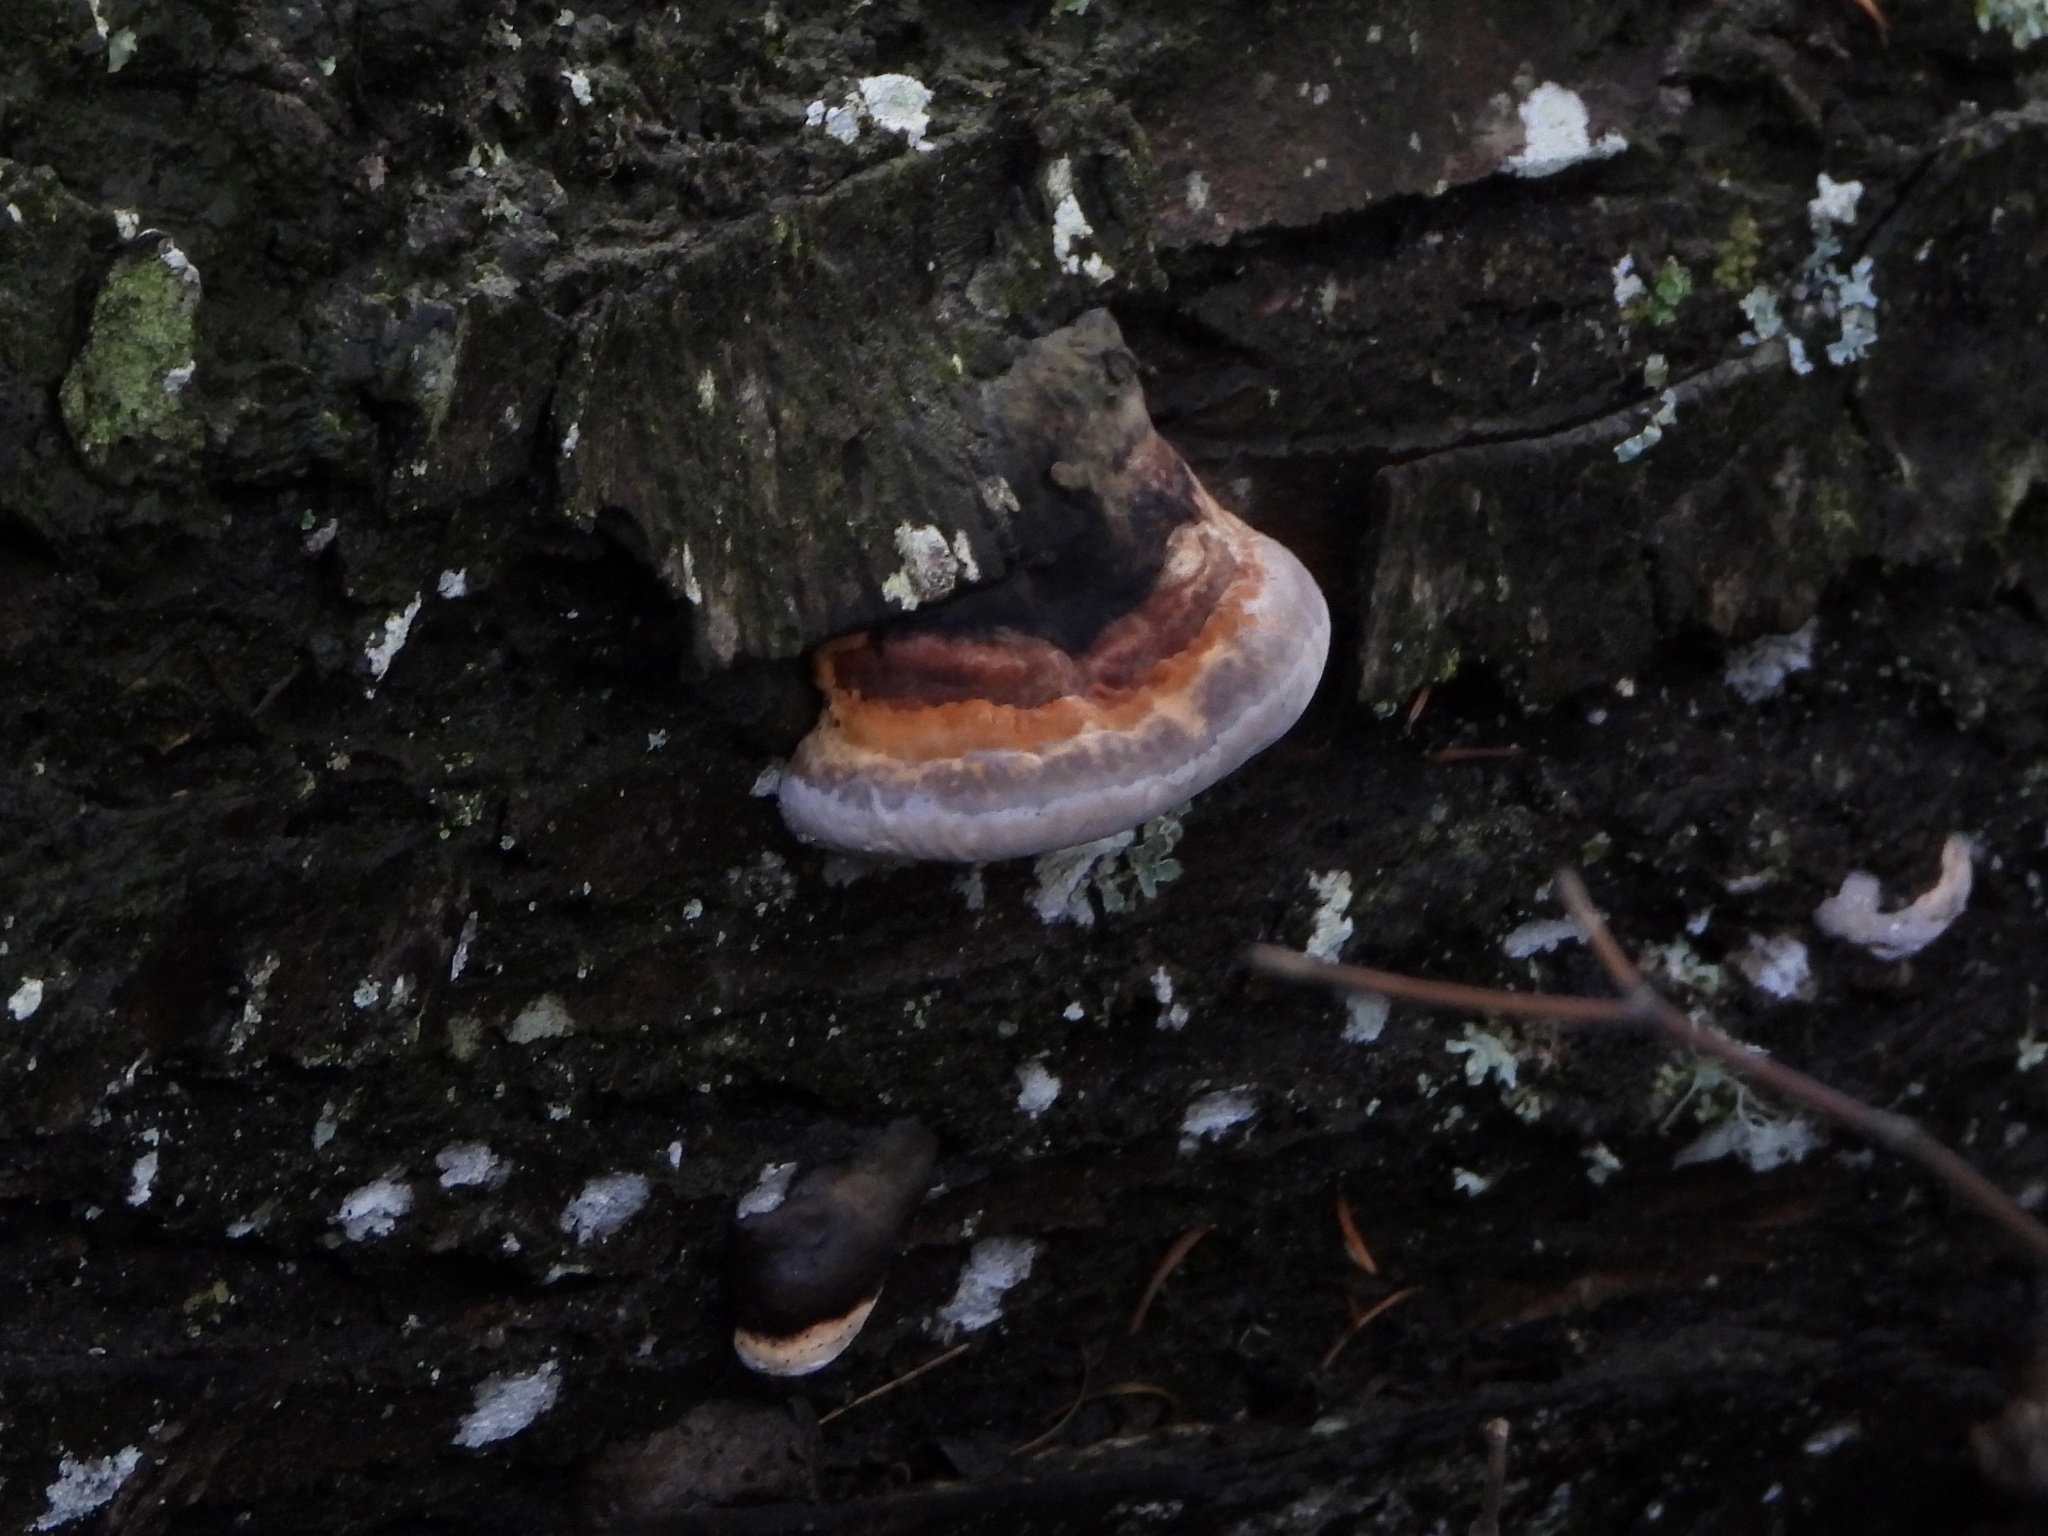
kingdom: Fungi
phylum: Basidiomycota
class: Agaricomycetes
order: Polyporales
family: Fomitopsidaceae
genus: Fomitopsis
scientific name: Fomitopsis mounceae
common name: Northern red belt
